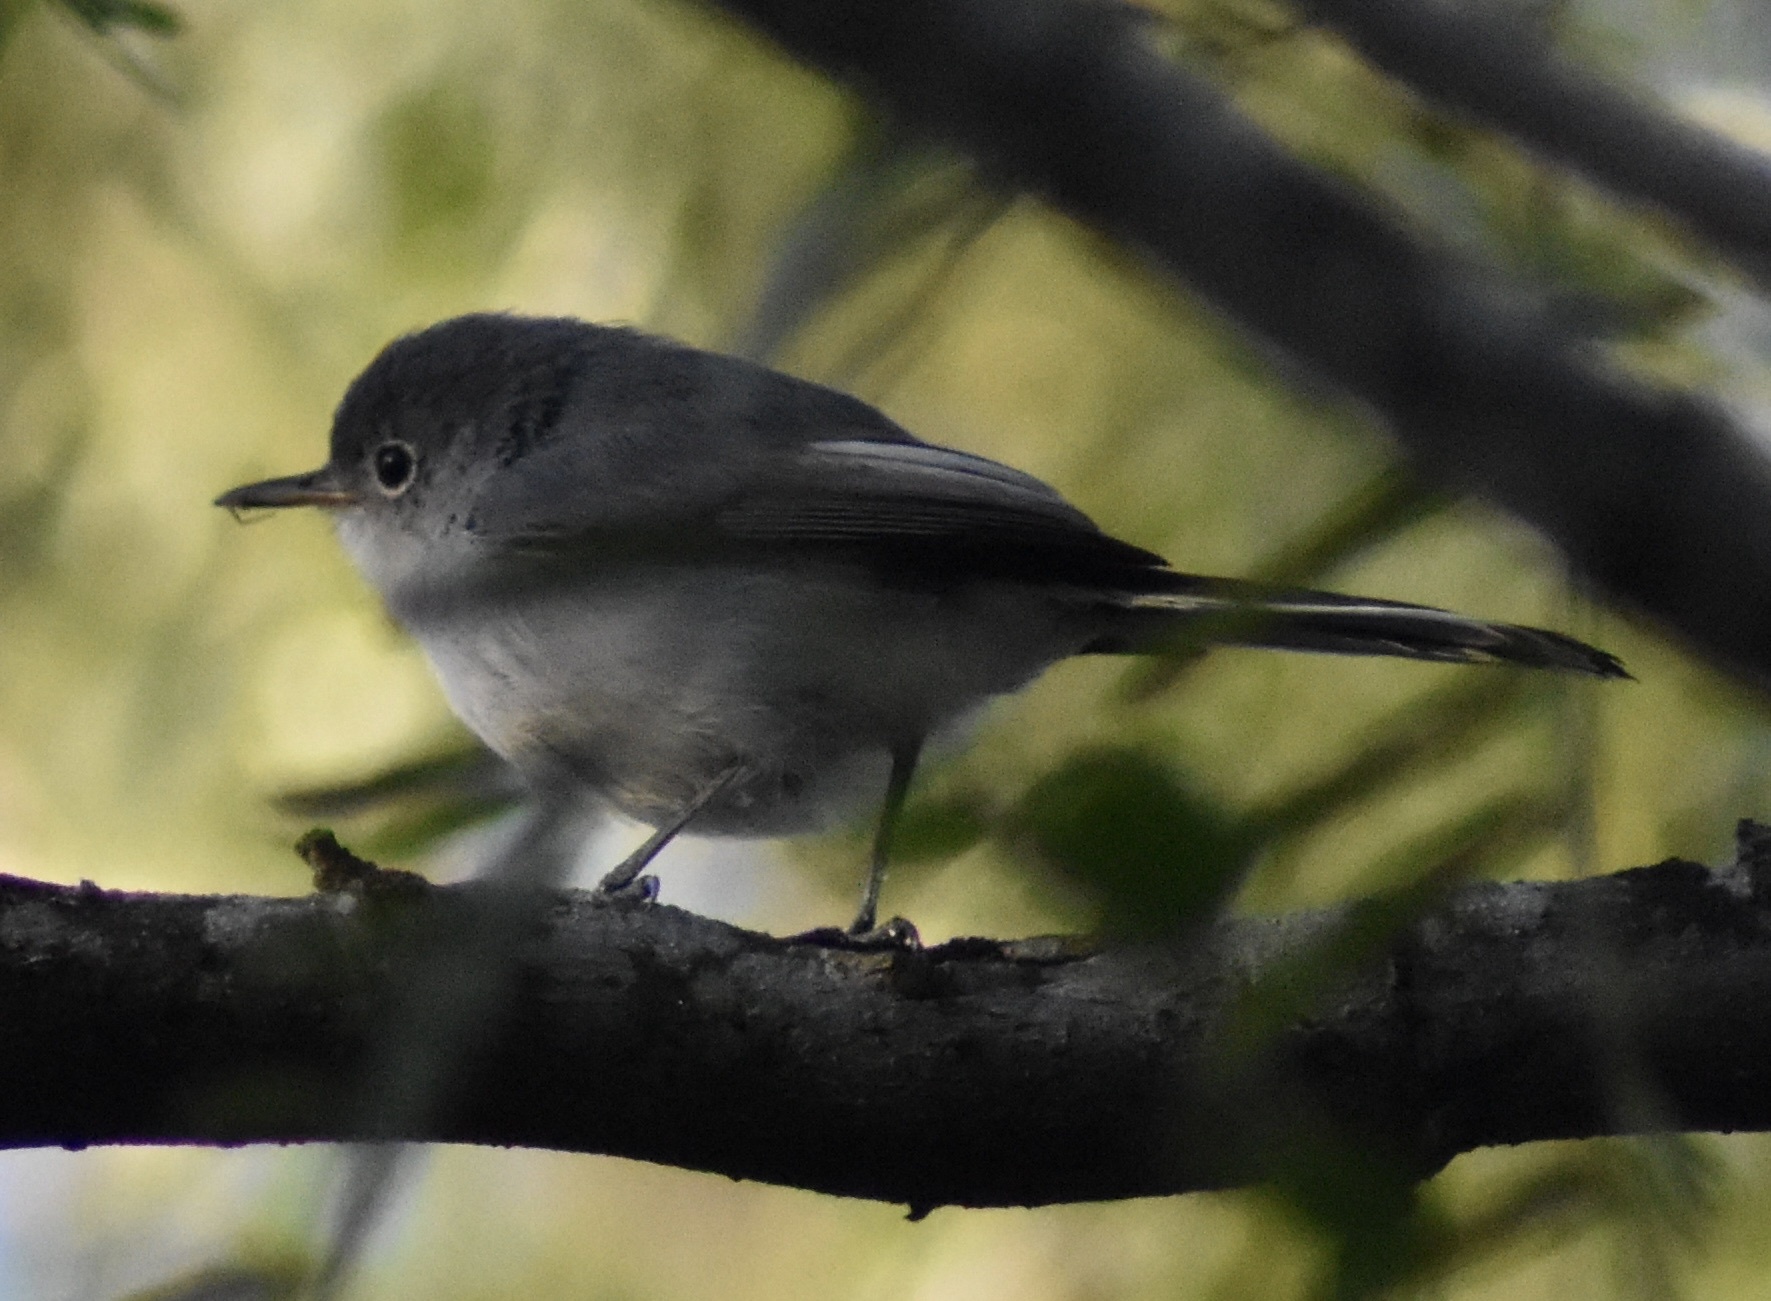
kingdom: Animalia
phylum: Chordata
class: Aves
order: Passeriformes
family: Polioptilidae
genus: Polioptila
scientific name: Polioptila caerulea
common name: Blue-gray gnatcatcher
